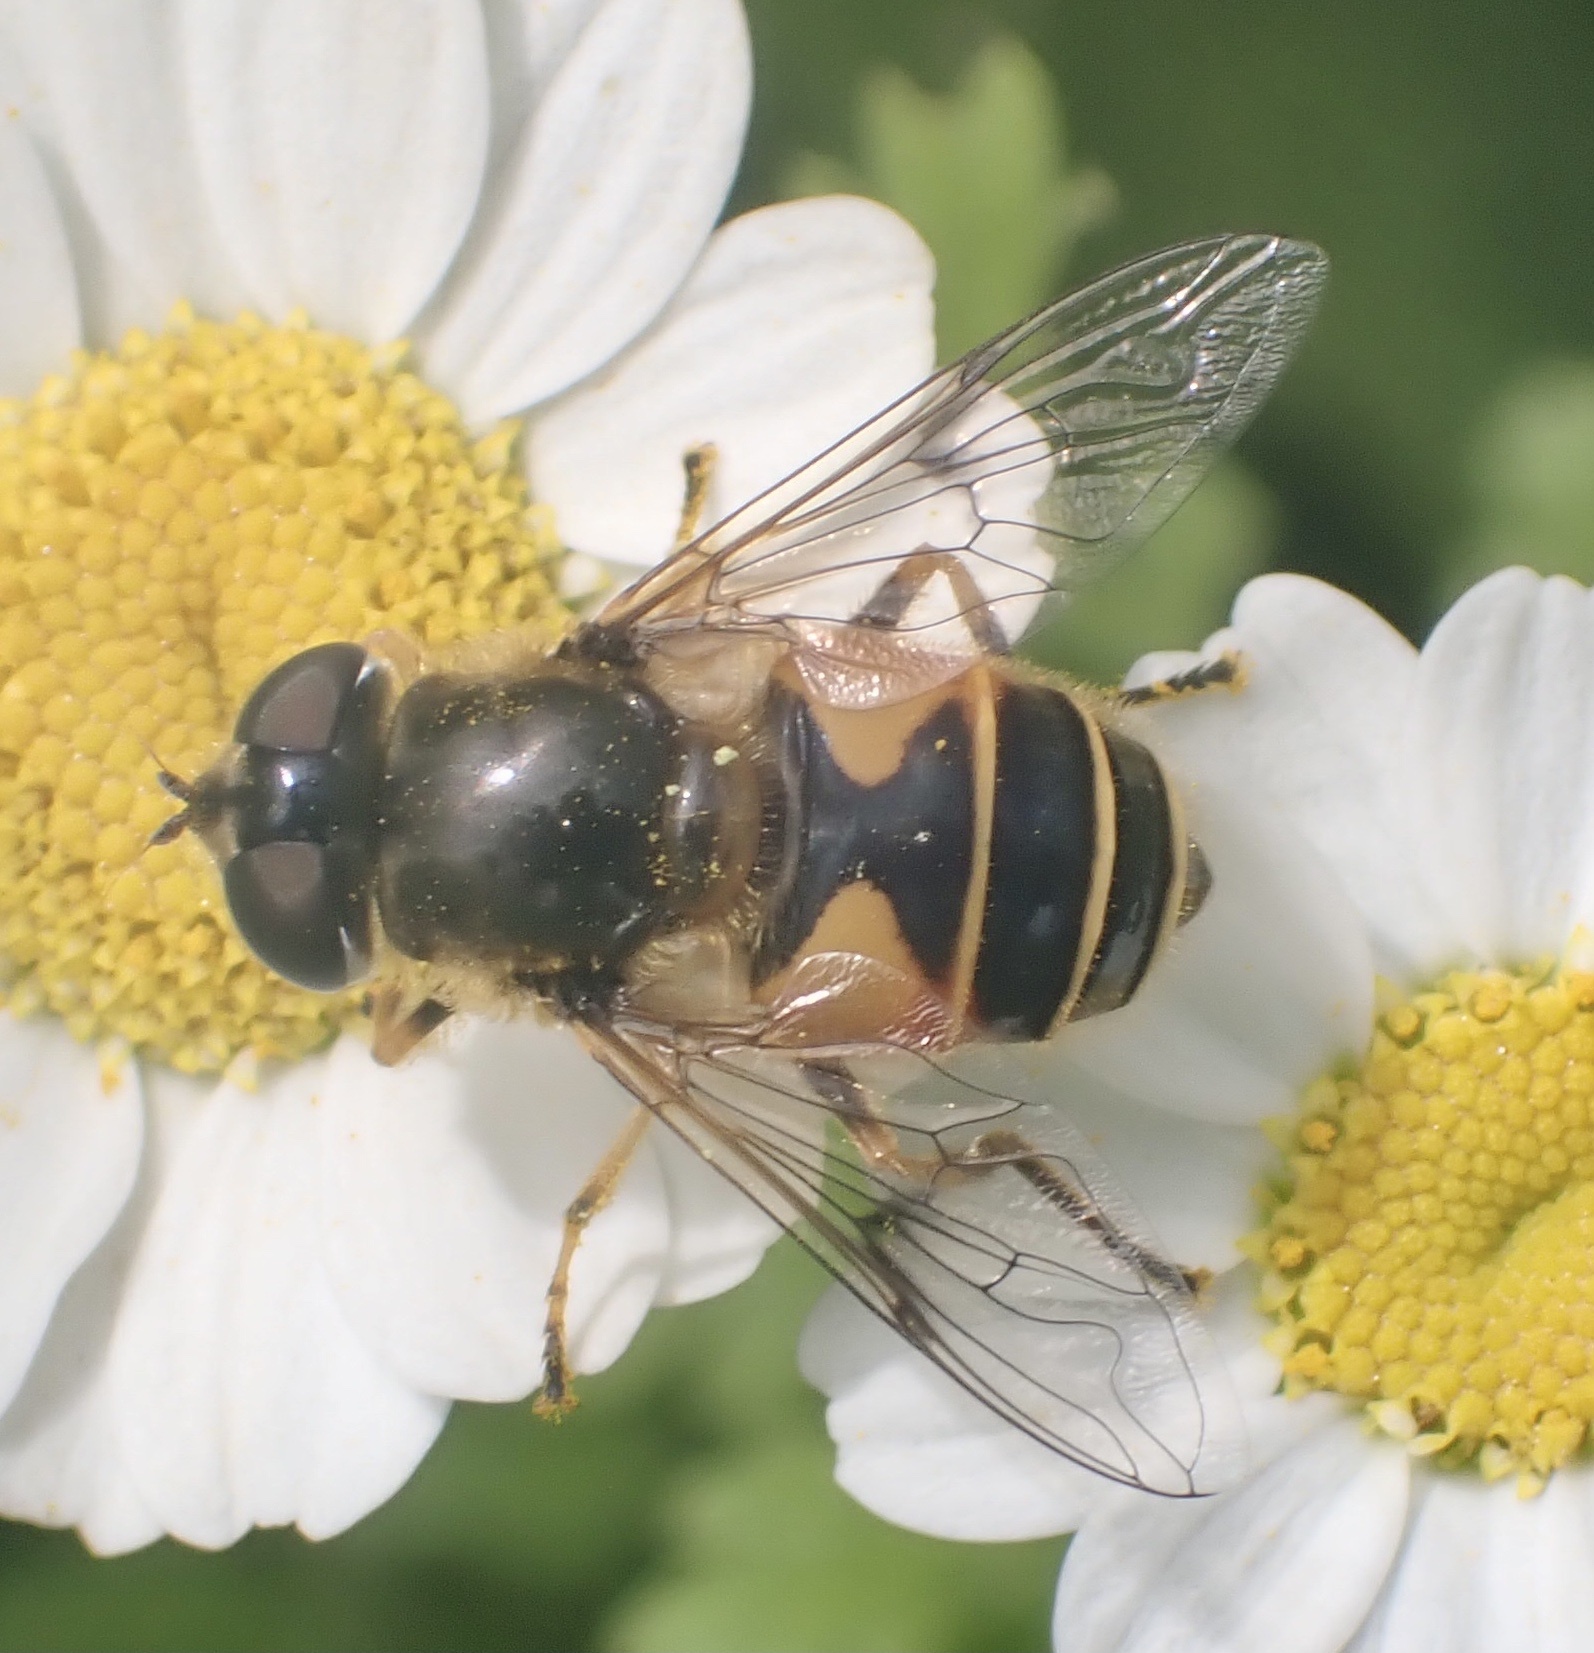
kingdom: Animalia
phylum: Arthropoda
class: Insecta
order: Diptera
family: Syrphidae
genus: Cheilosia
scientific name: Cheilosia morio
